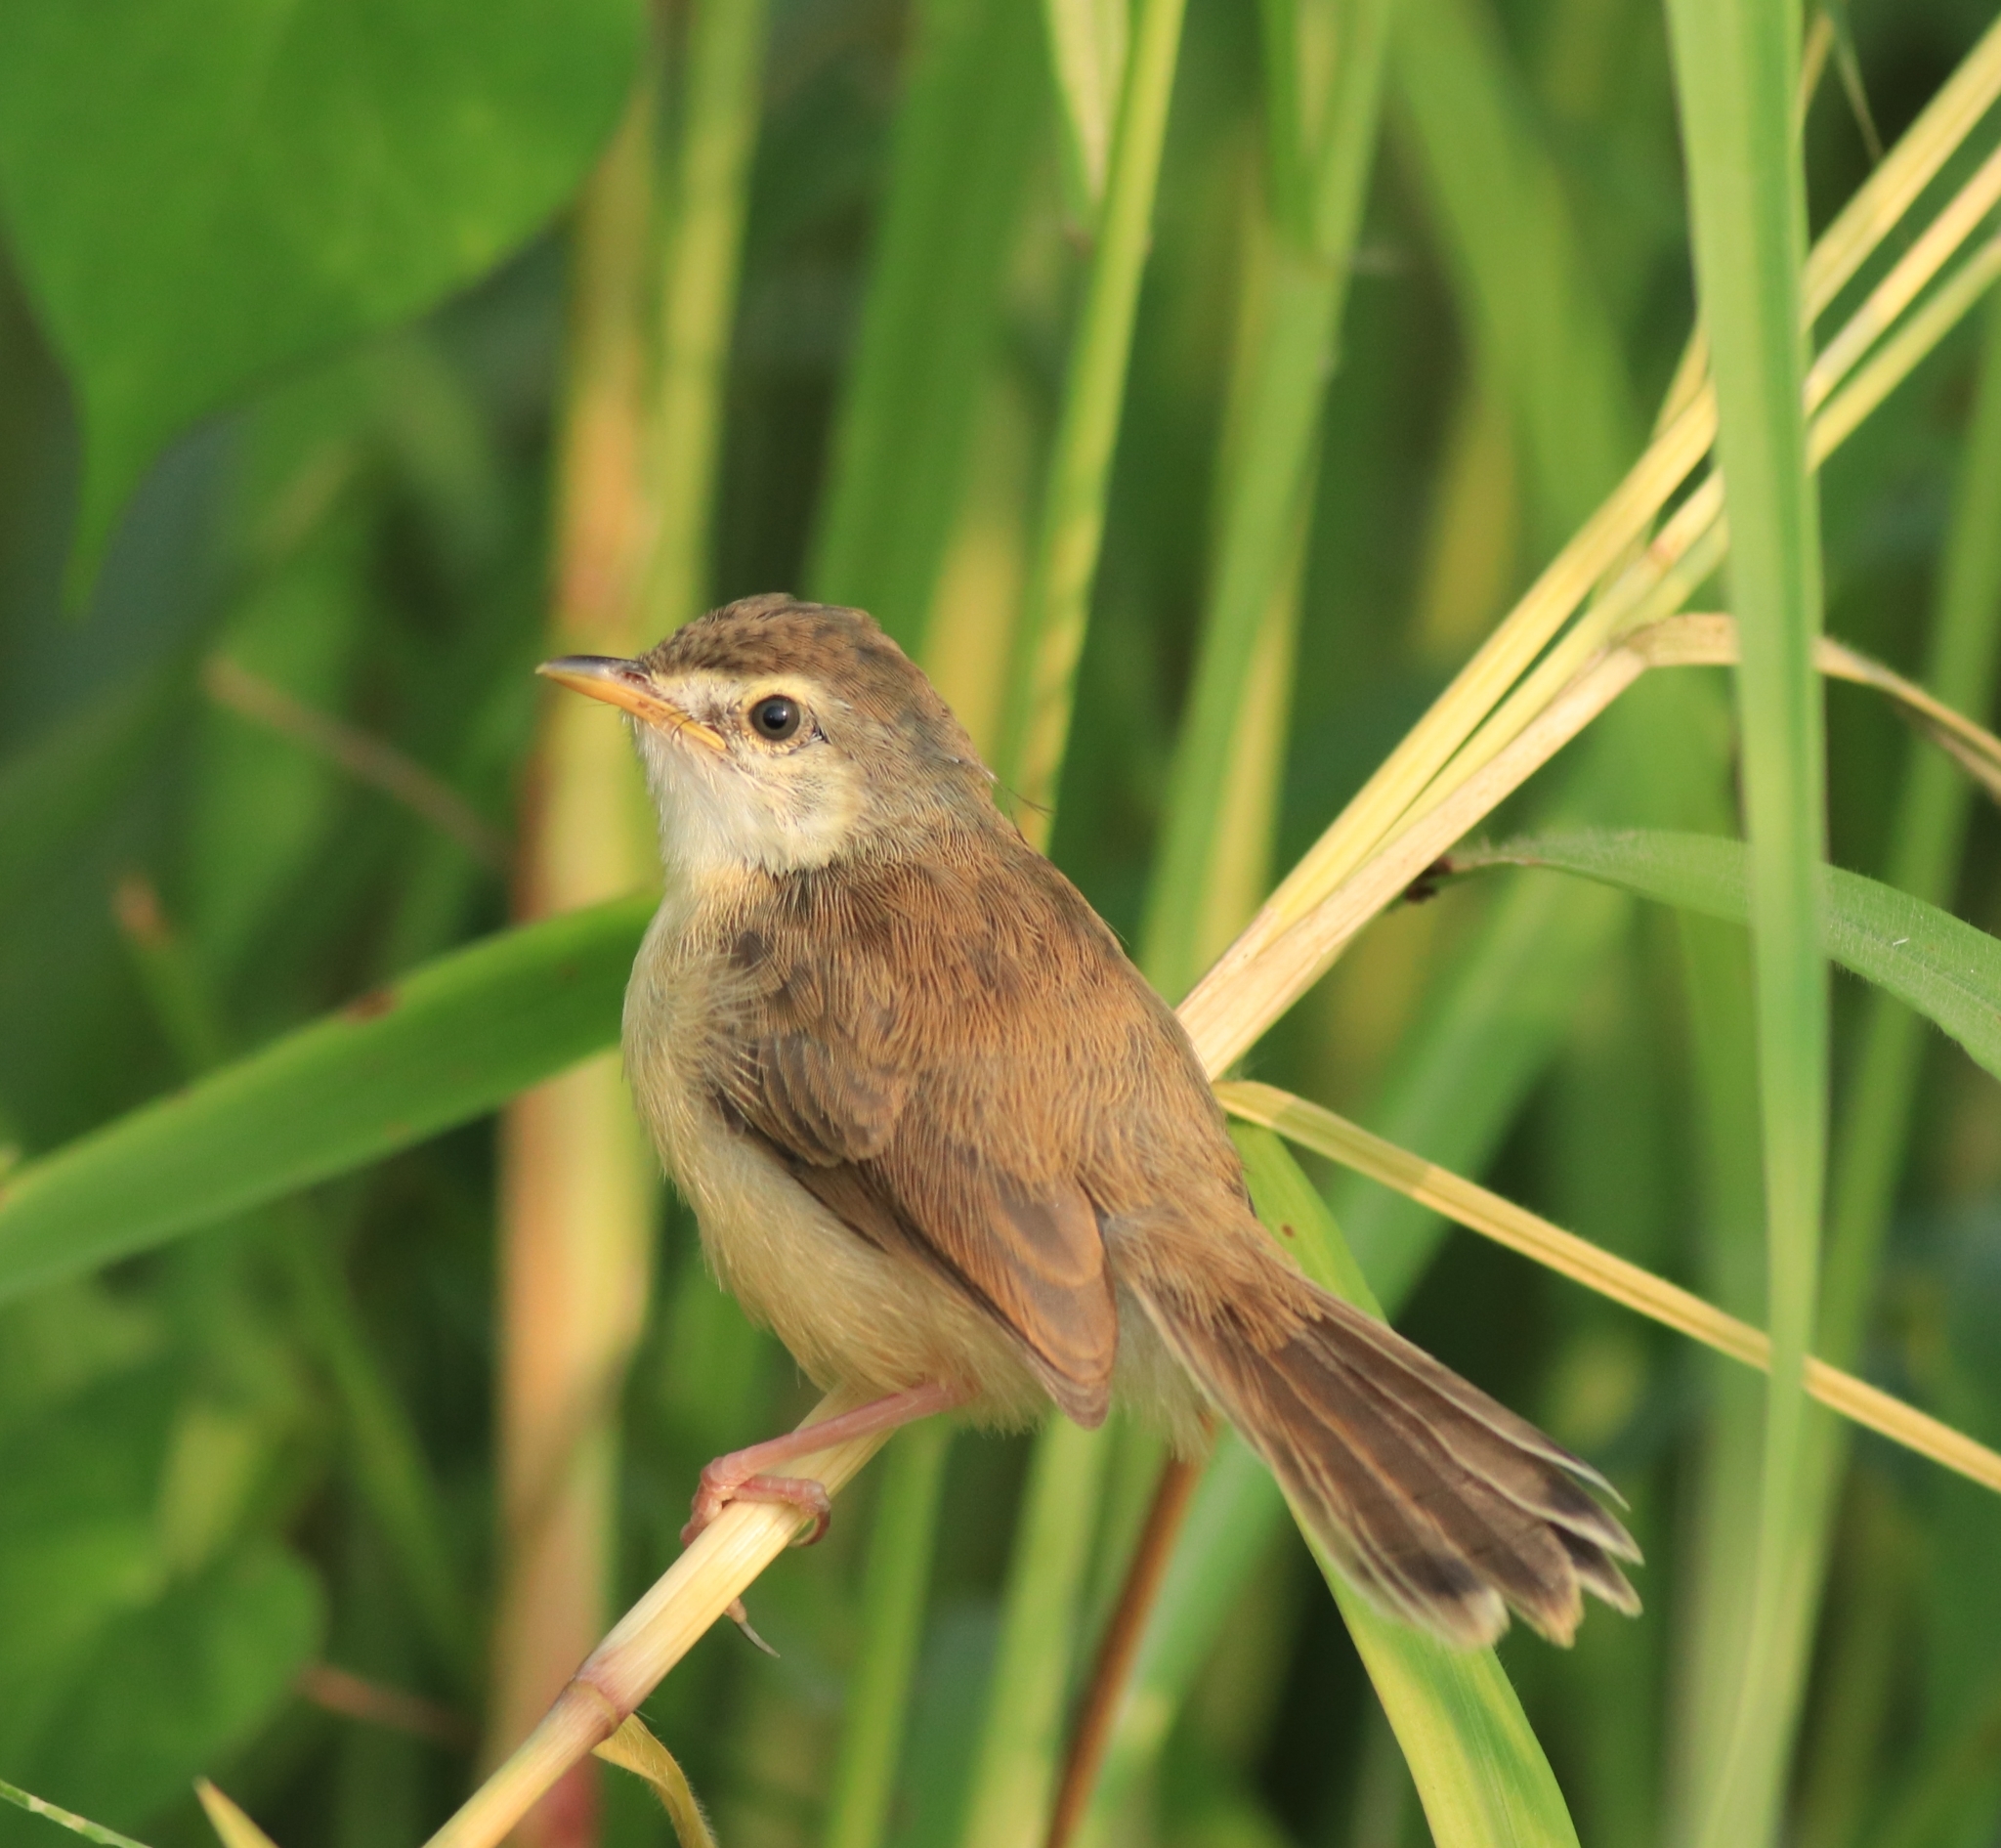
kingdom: Animalia
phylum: Chordata
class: Aves
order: Passeriformes
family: Cisticolidae
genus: Prinia
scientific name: Prinia inornata
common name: Plain prinia
